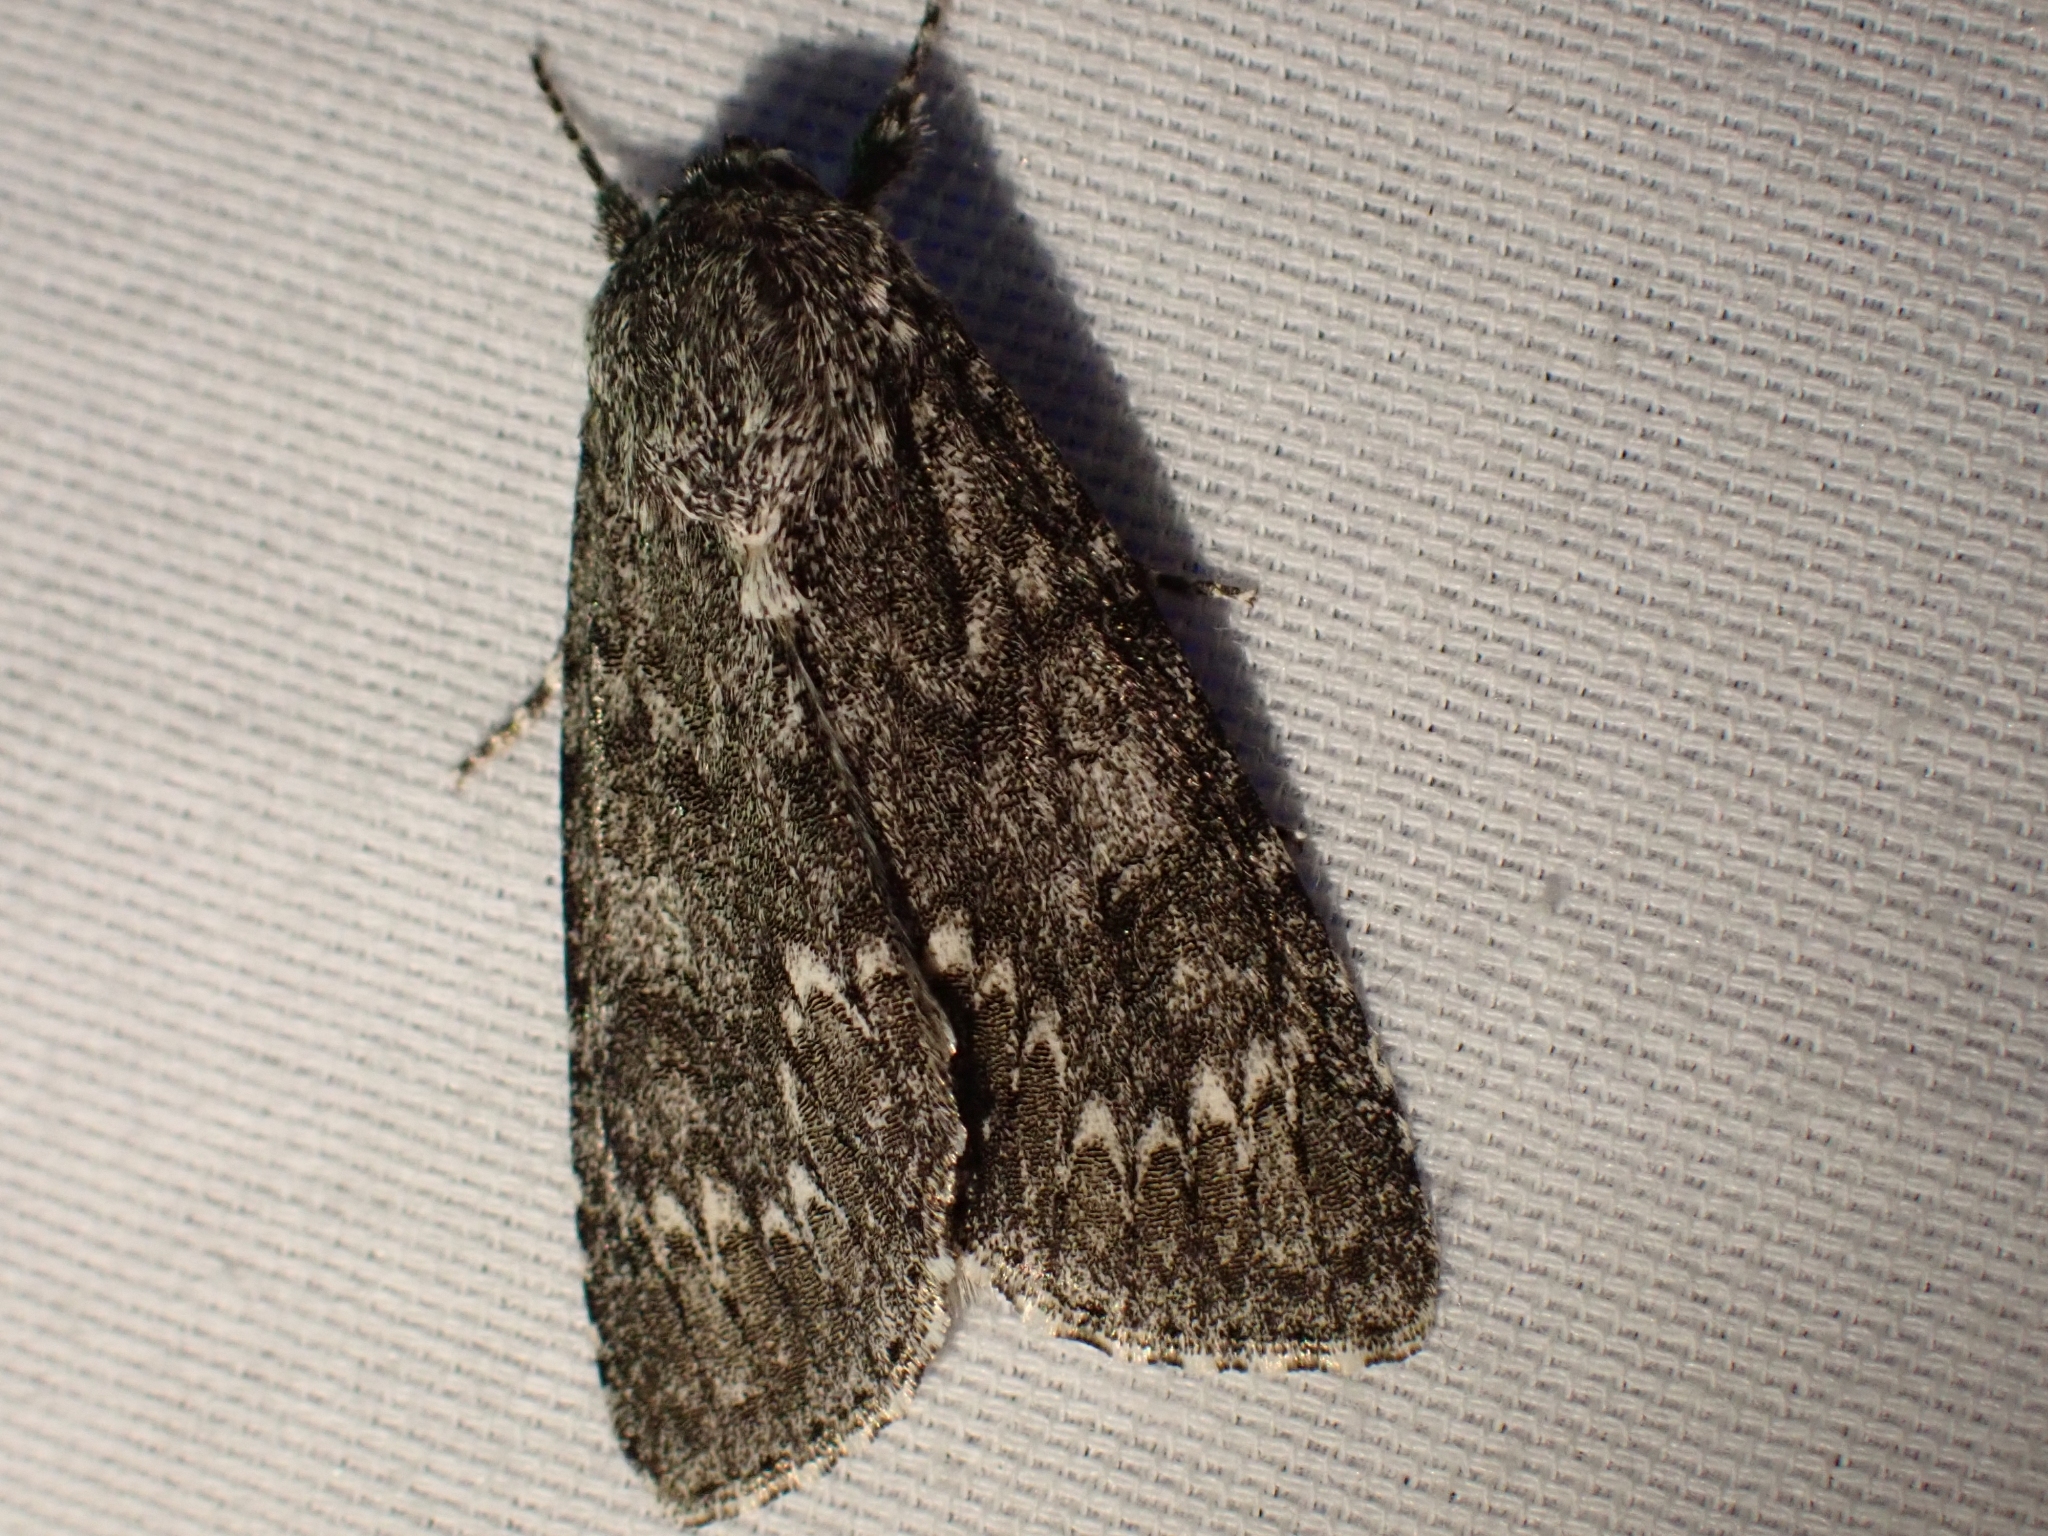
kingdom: Animalia
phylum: Arthropoda
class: Insecta
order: Lepidoptera
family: Noctuidae
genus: Acronicta
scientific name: Acronicta impleta
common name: Powdered dagger
